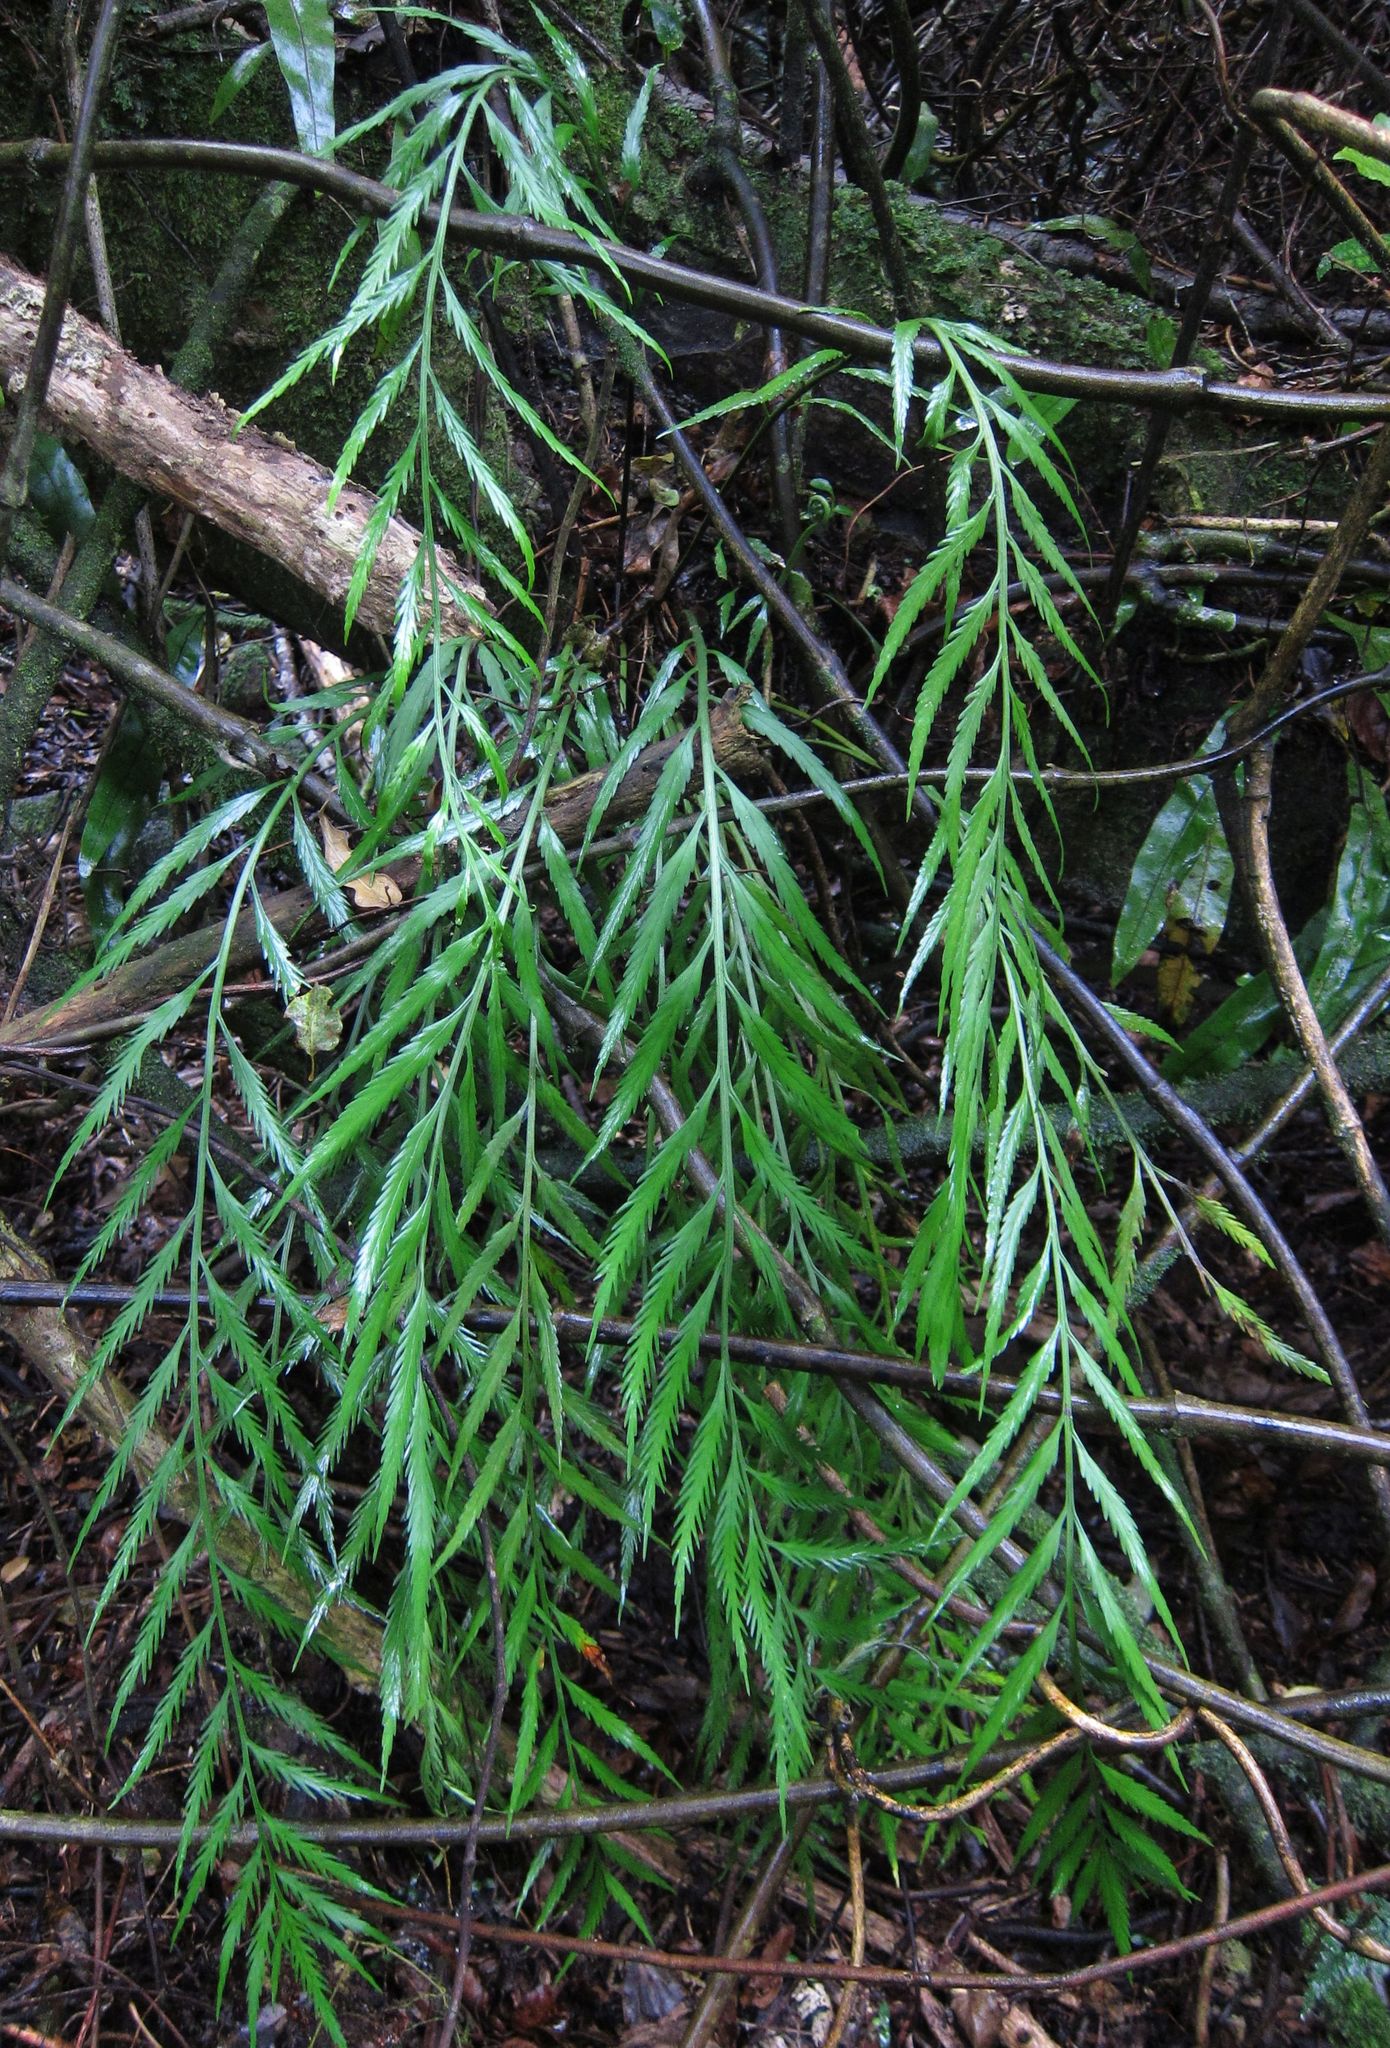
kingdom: Plantae
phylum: Tracheophyta
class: Polypodiopsida
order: Polypodiales
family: Aspleniaceae
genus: Asplenium
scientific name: Asplenium flaccidum
